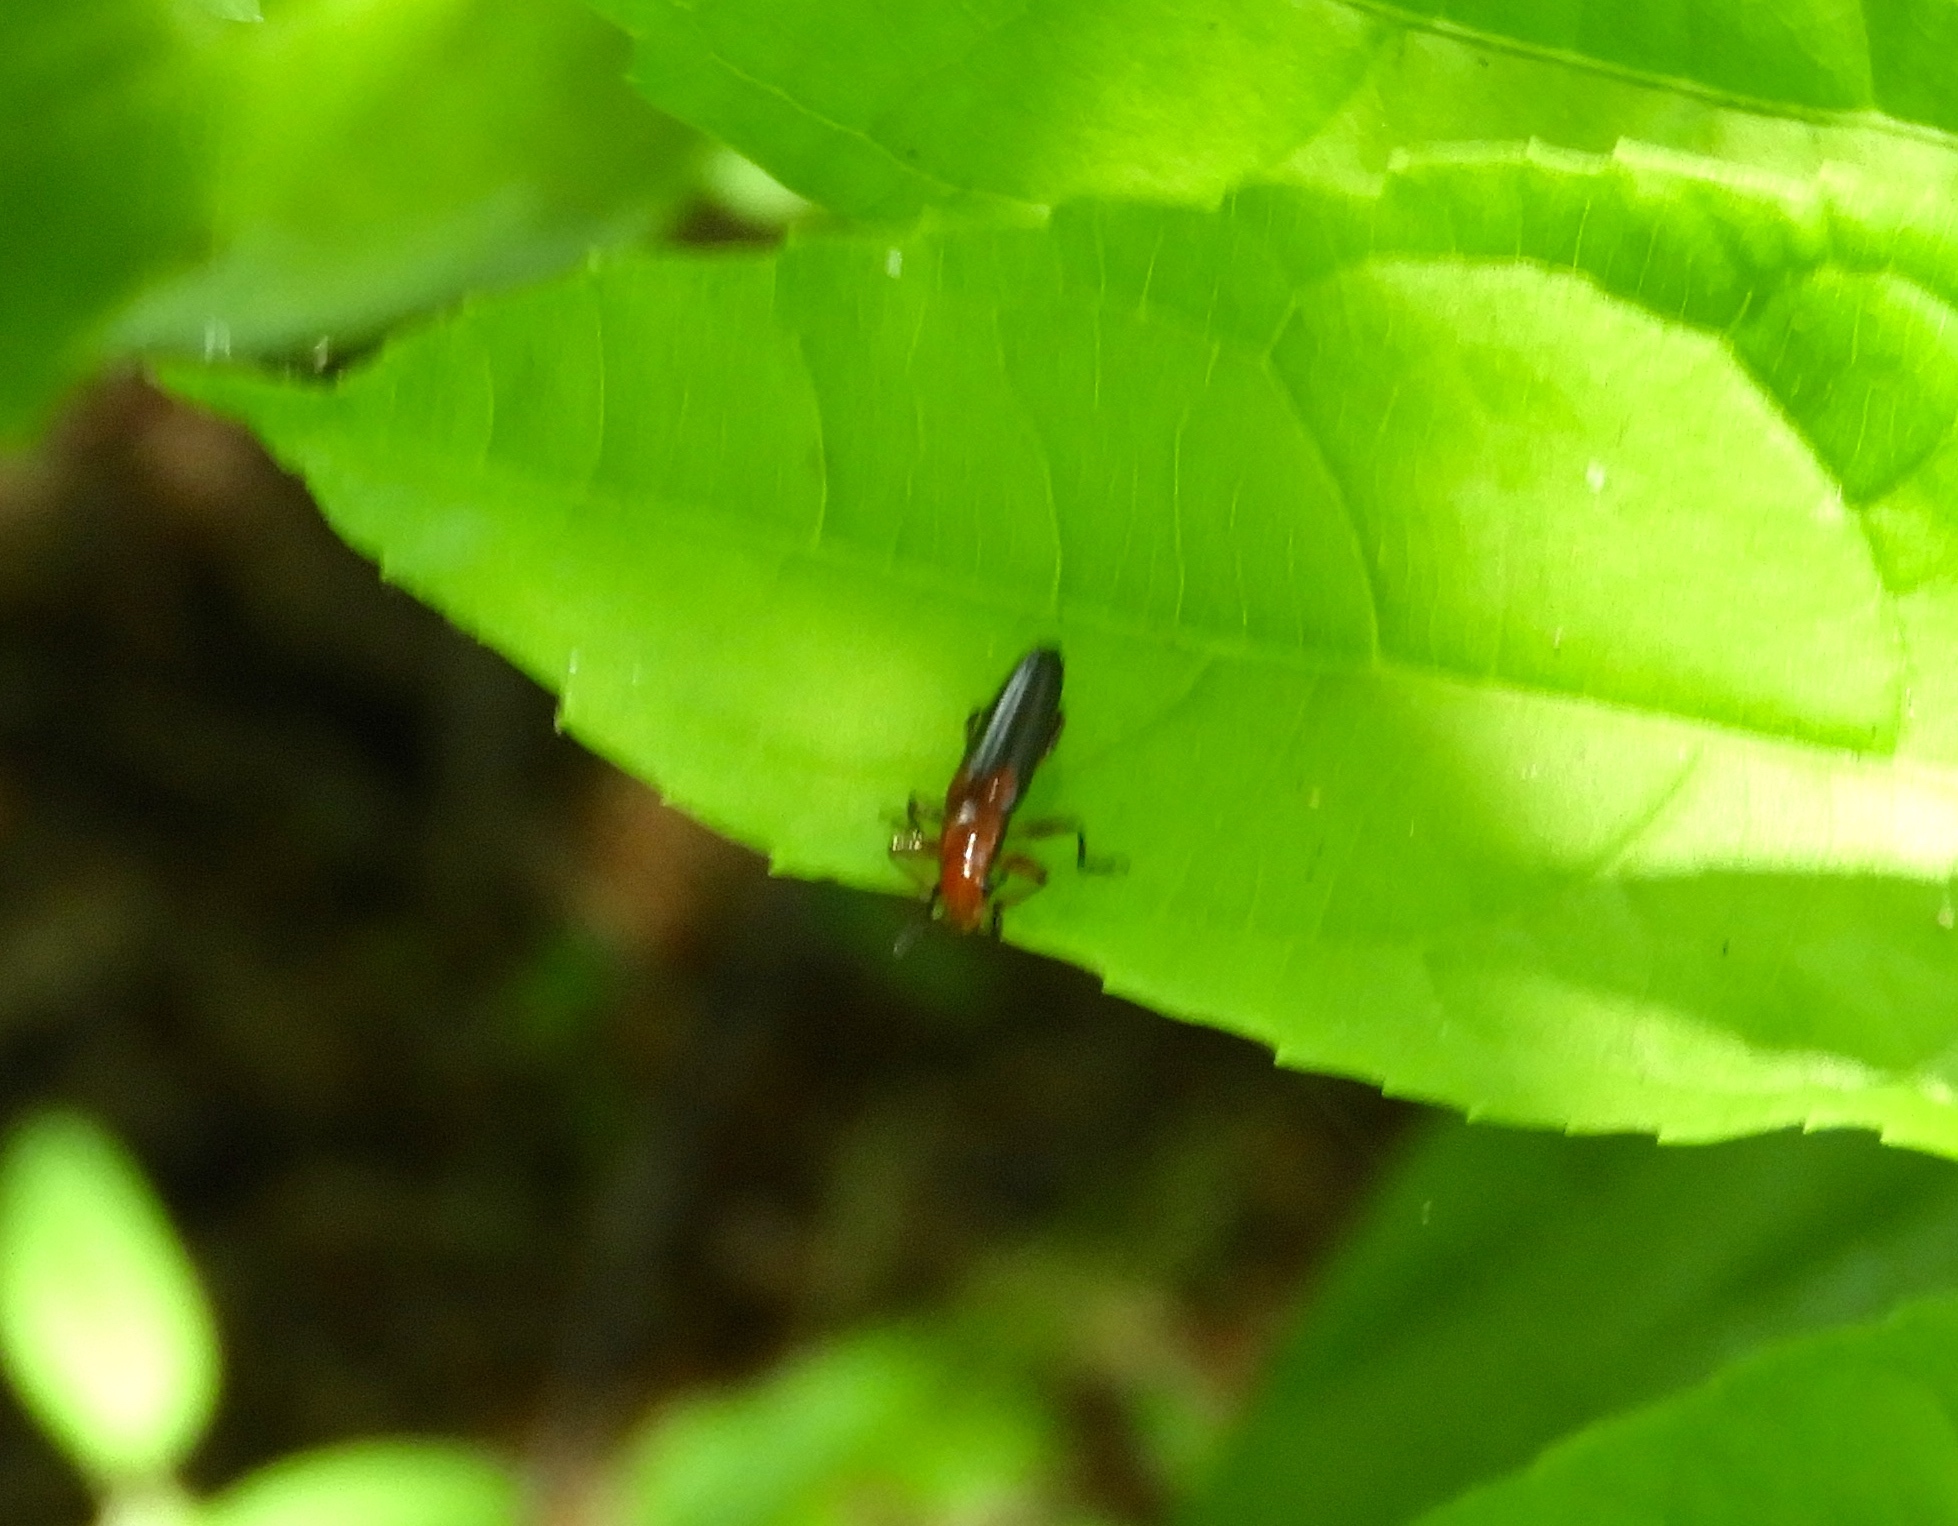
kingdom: Animalia
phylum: Arthropoda
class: Insecta
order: Coleoptera
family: Erotylidae
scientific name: Erotylidae
